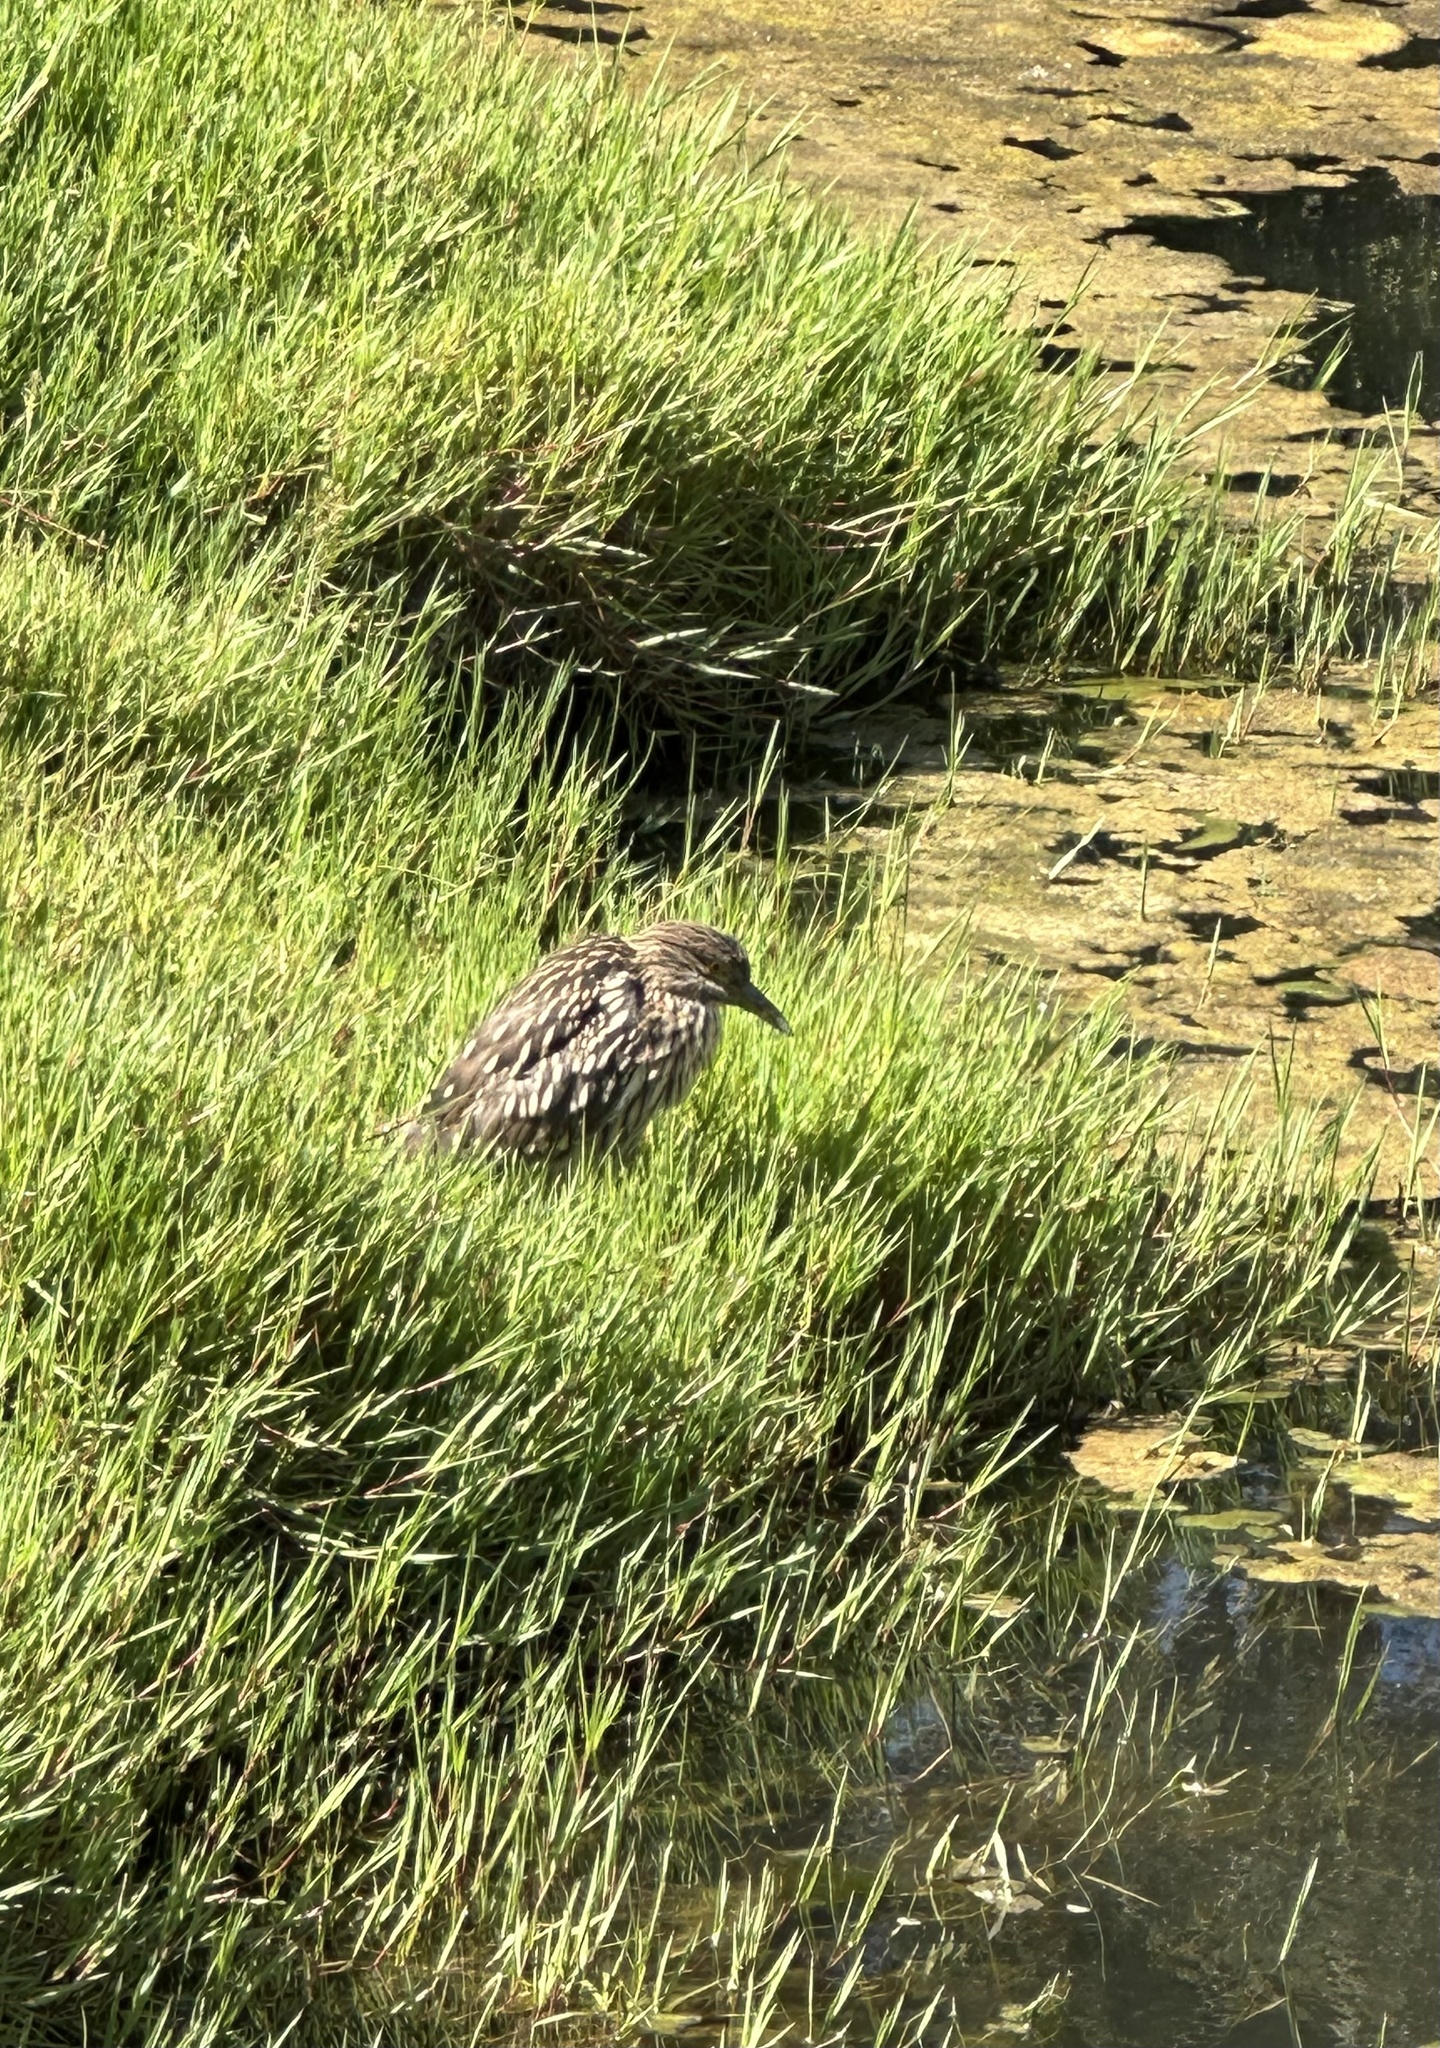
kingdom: Animalia
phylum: Chordata
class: Aves
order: Pelecaniformes
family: Ardeidae
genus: Nycticorax
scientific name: Nycticorax nycticorax
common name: Black-crowned night heron
